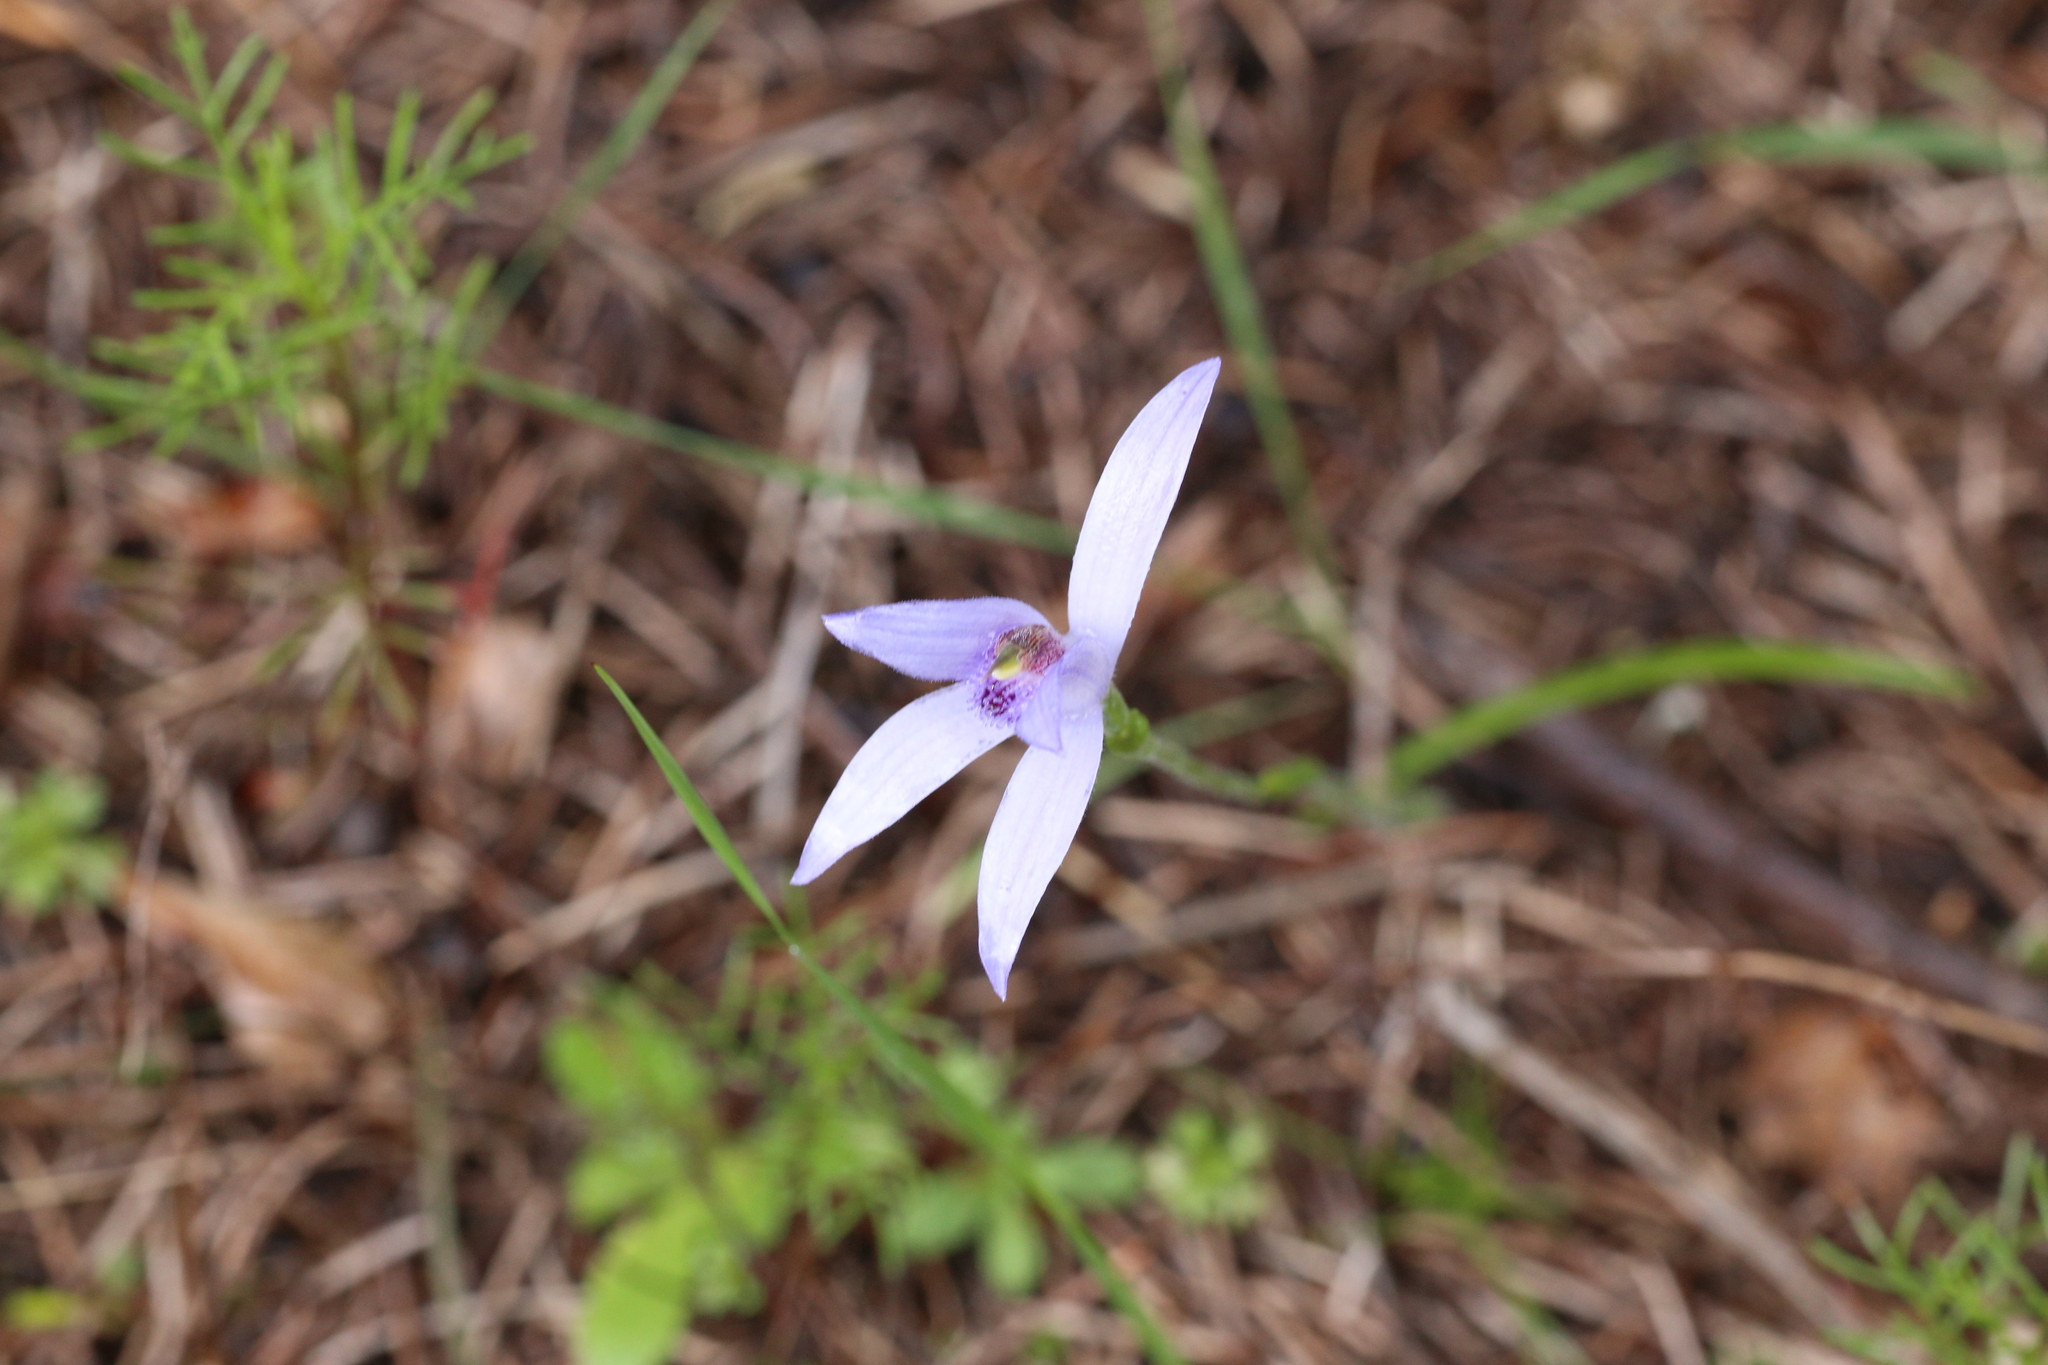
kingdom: Plantae
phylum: Tracheophyta
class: Liliopsida
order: Asparagales
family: Orchidaceae
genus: Pheladenia
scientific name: Pheladenia deformis
